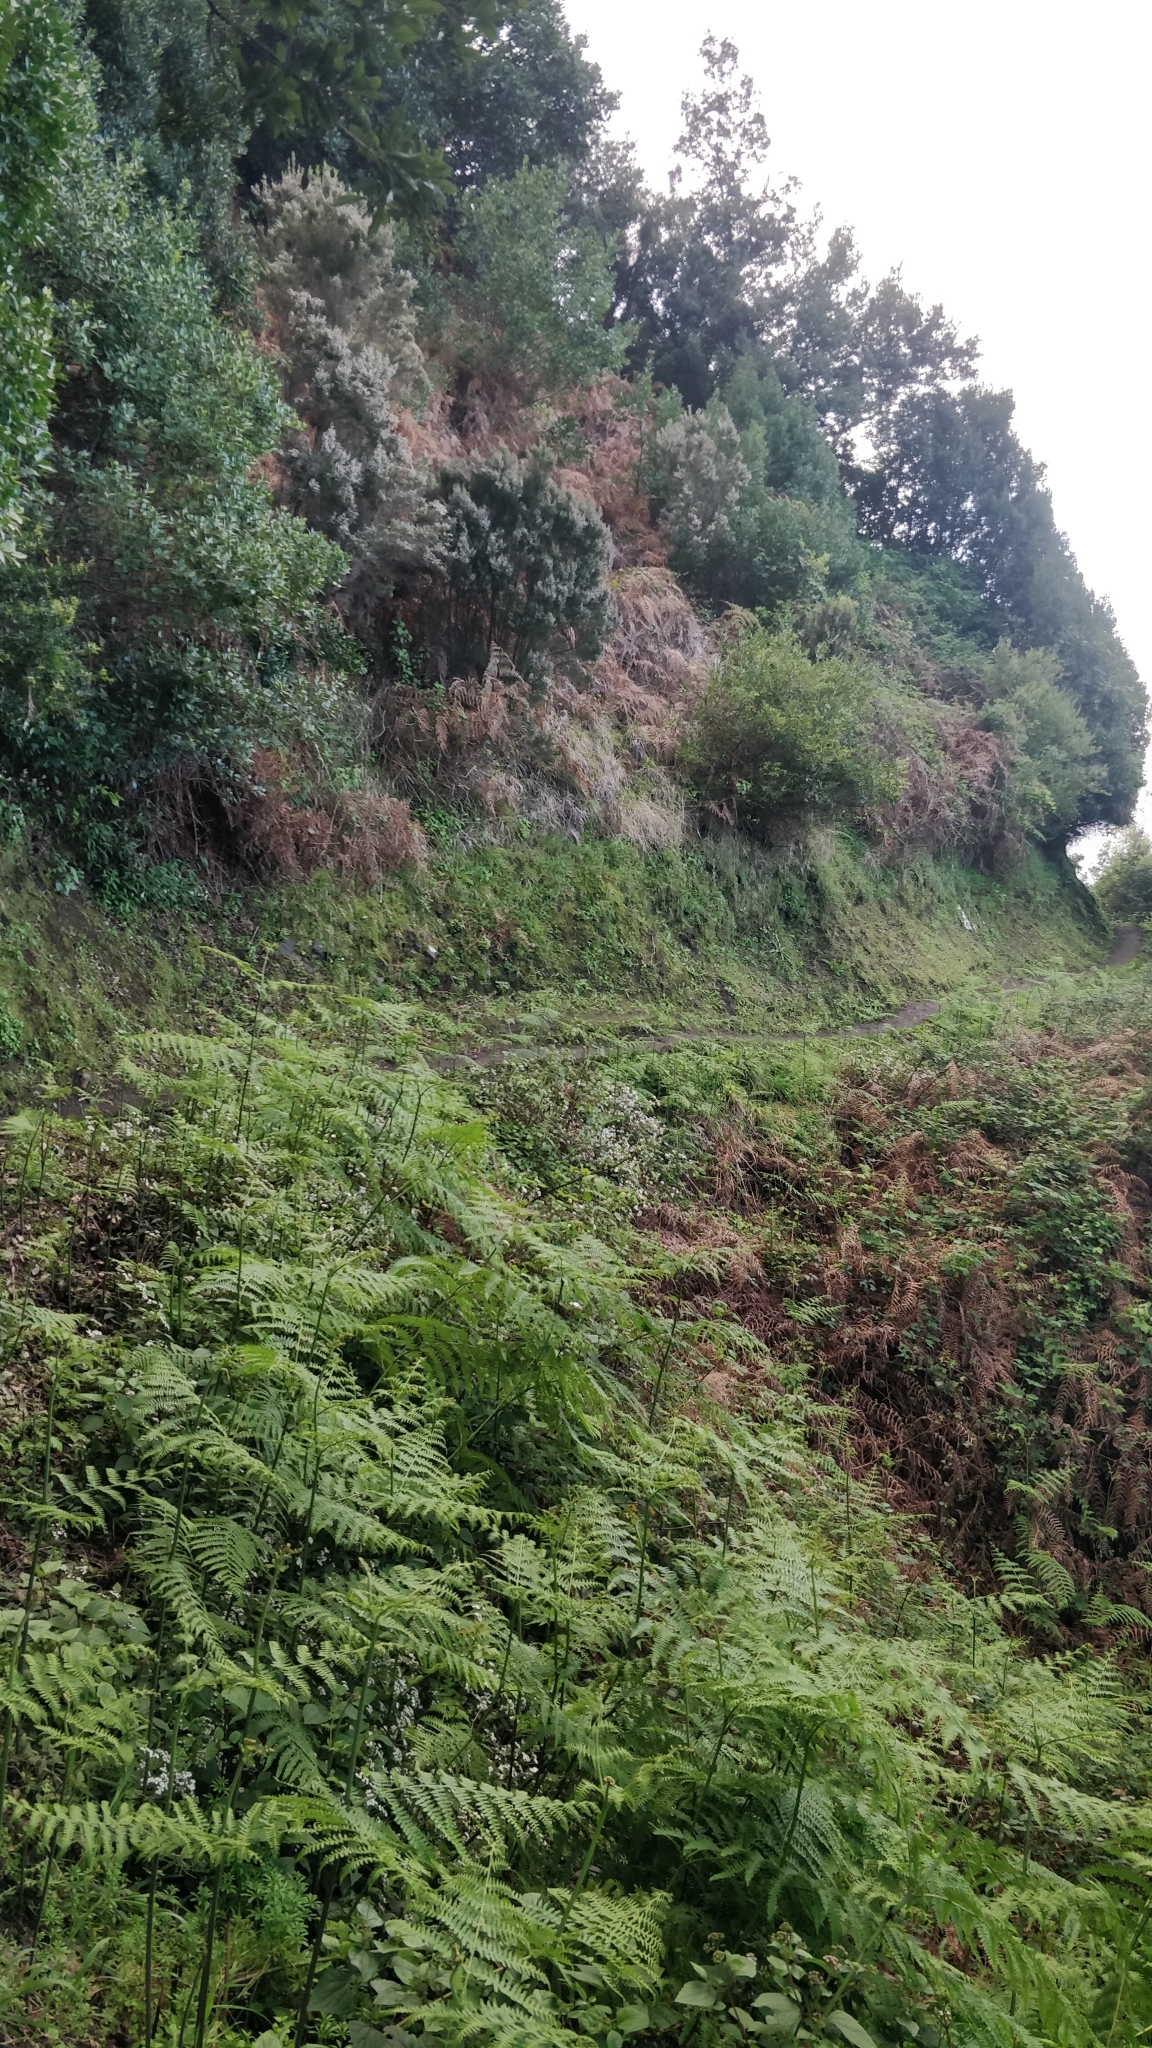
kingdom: Plantae
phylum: Tracheophyta
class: Polypodiopsida
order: Polypodiales
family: Dennstaedtiaceae
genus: Pteridium
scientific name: Pteridium aquilinum
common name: Bracken
